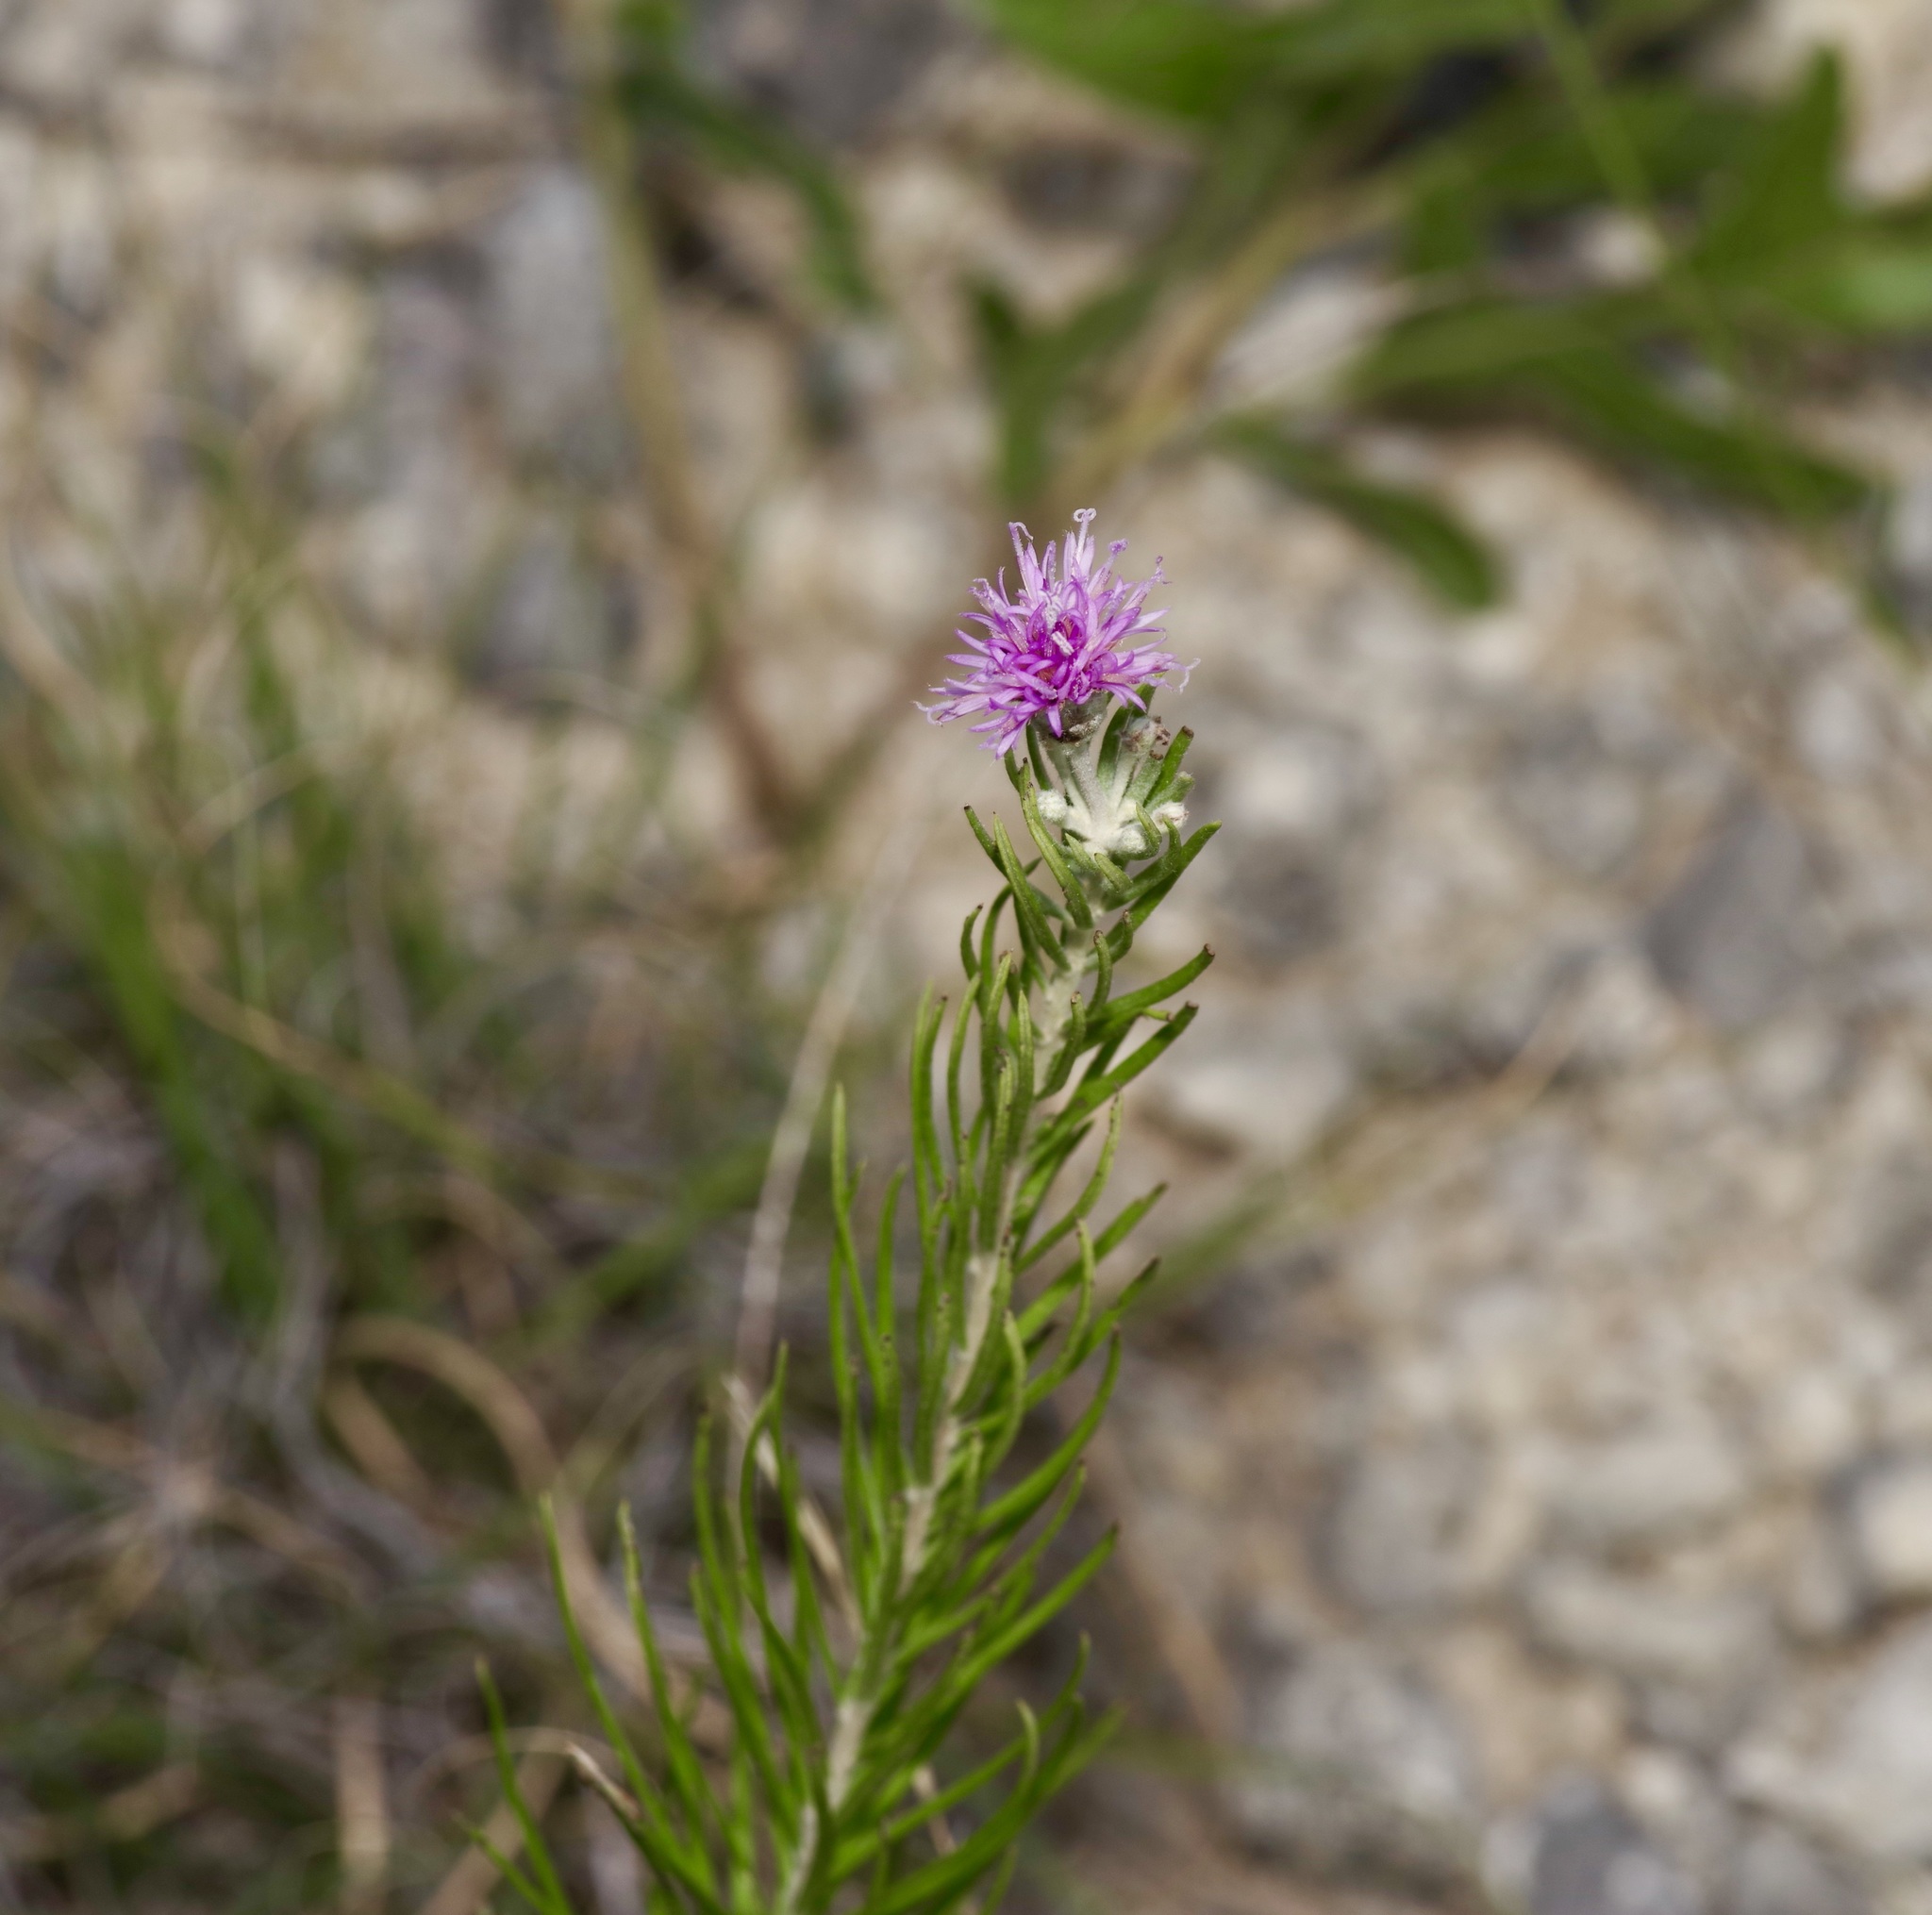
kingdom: Plantae
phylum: Tracheophyta
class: Magnoliopsida
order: Asterales
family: Asteraceae
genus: Vernonia
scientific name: Vernonia lindheimeri
